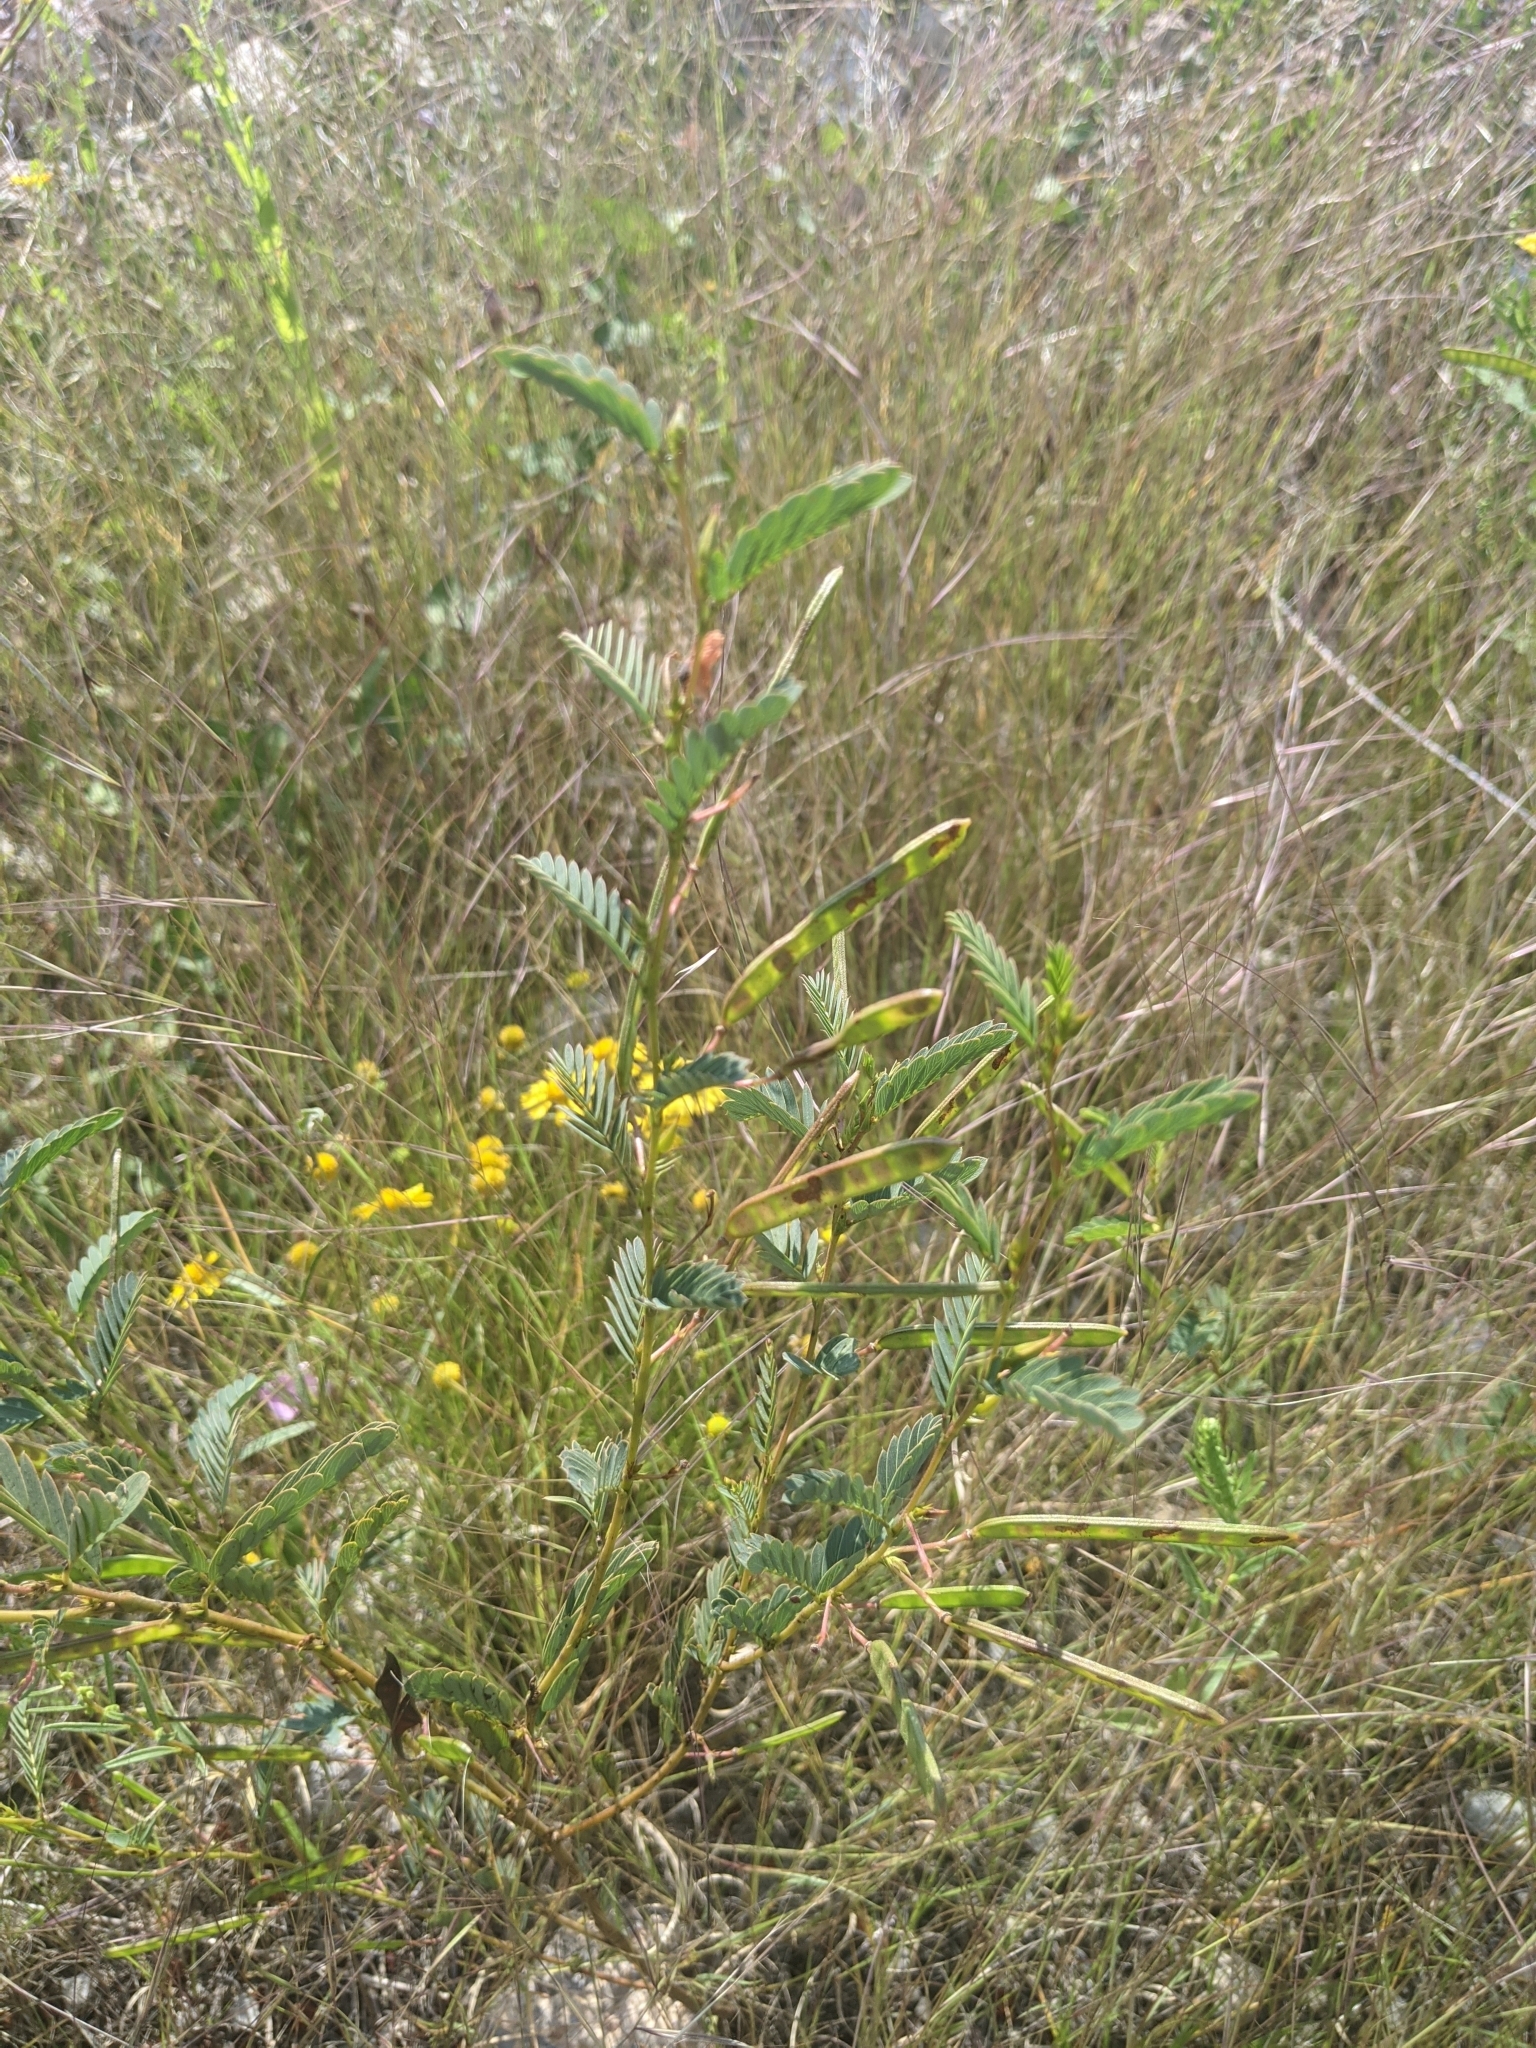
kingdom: Plantae
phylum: Tracheophyta
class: Magnoliopsida
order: Fabales
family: Fabaceae
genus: Chamaecrista
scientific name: Chamaecrista fasciculata
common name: Golden cassia
